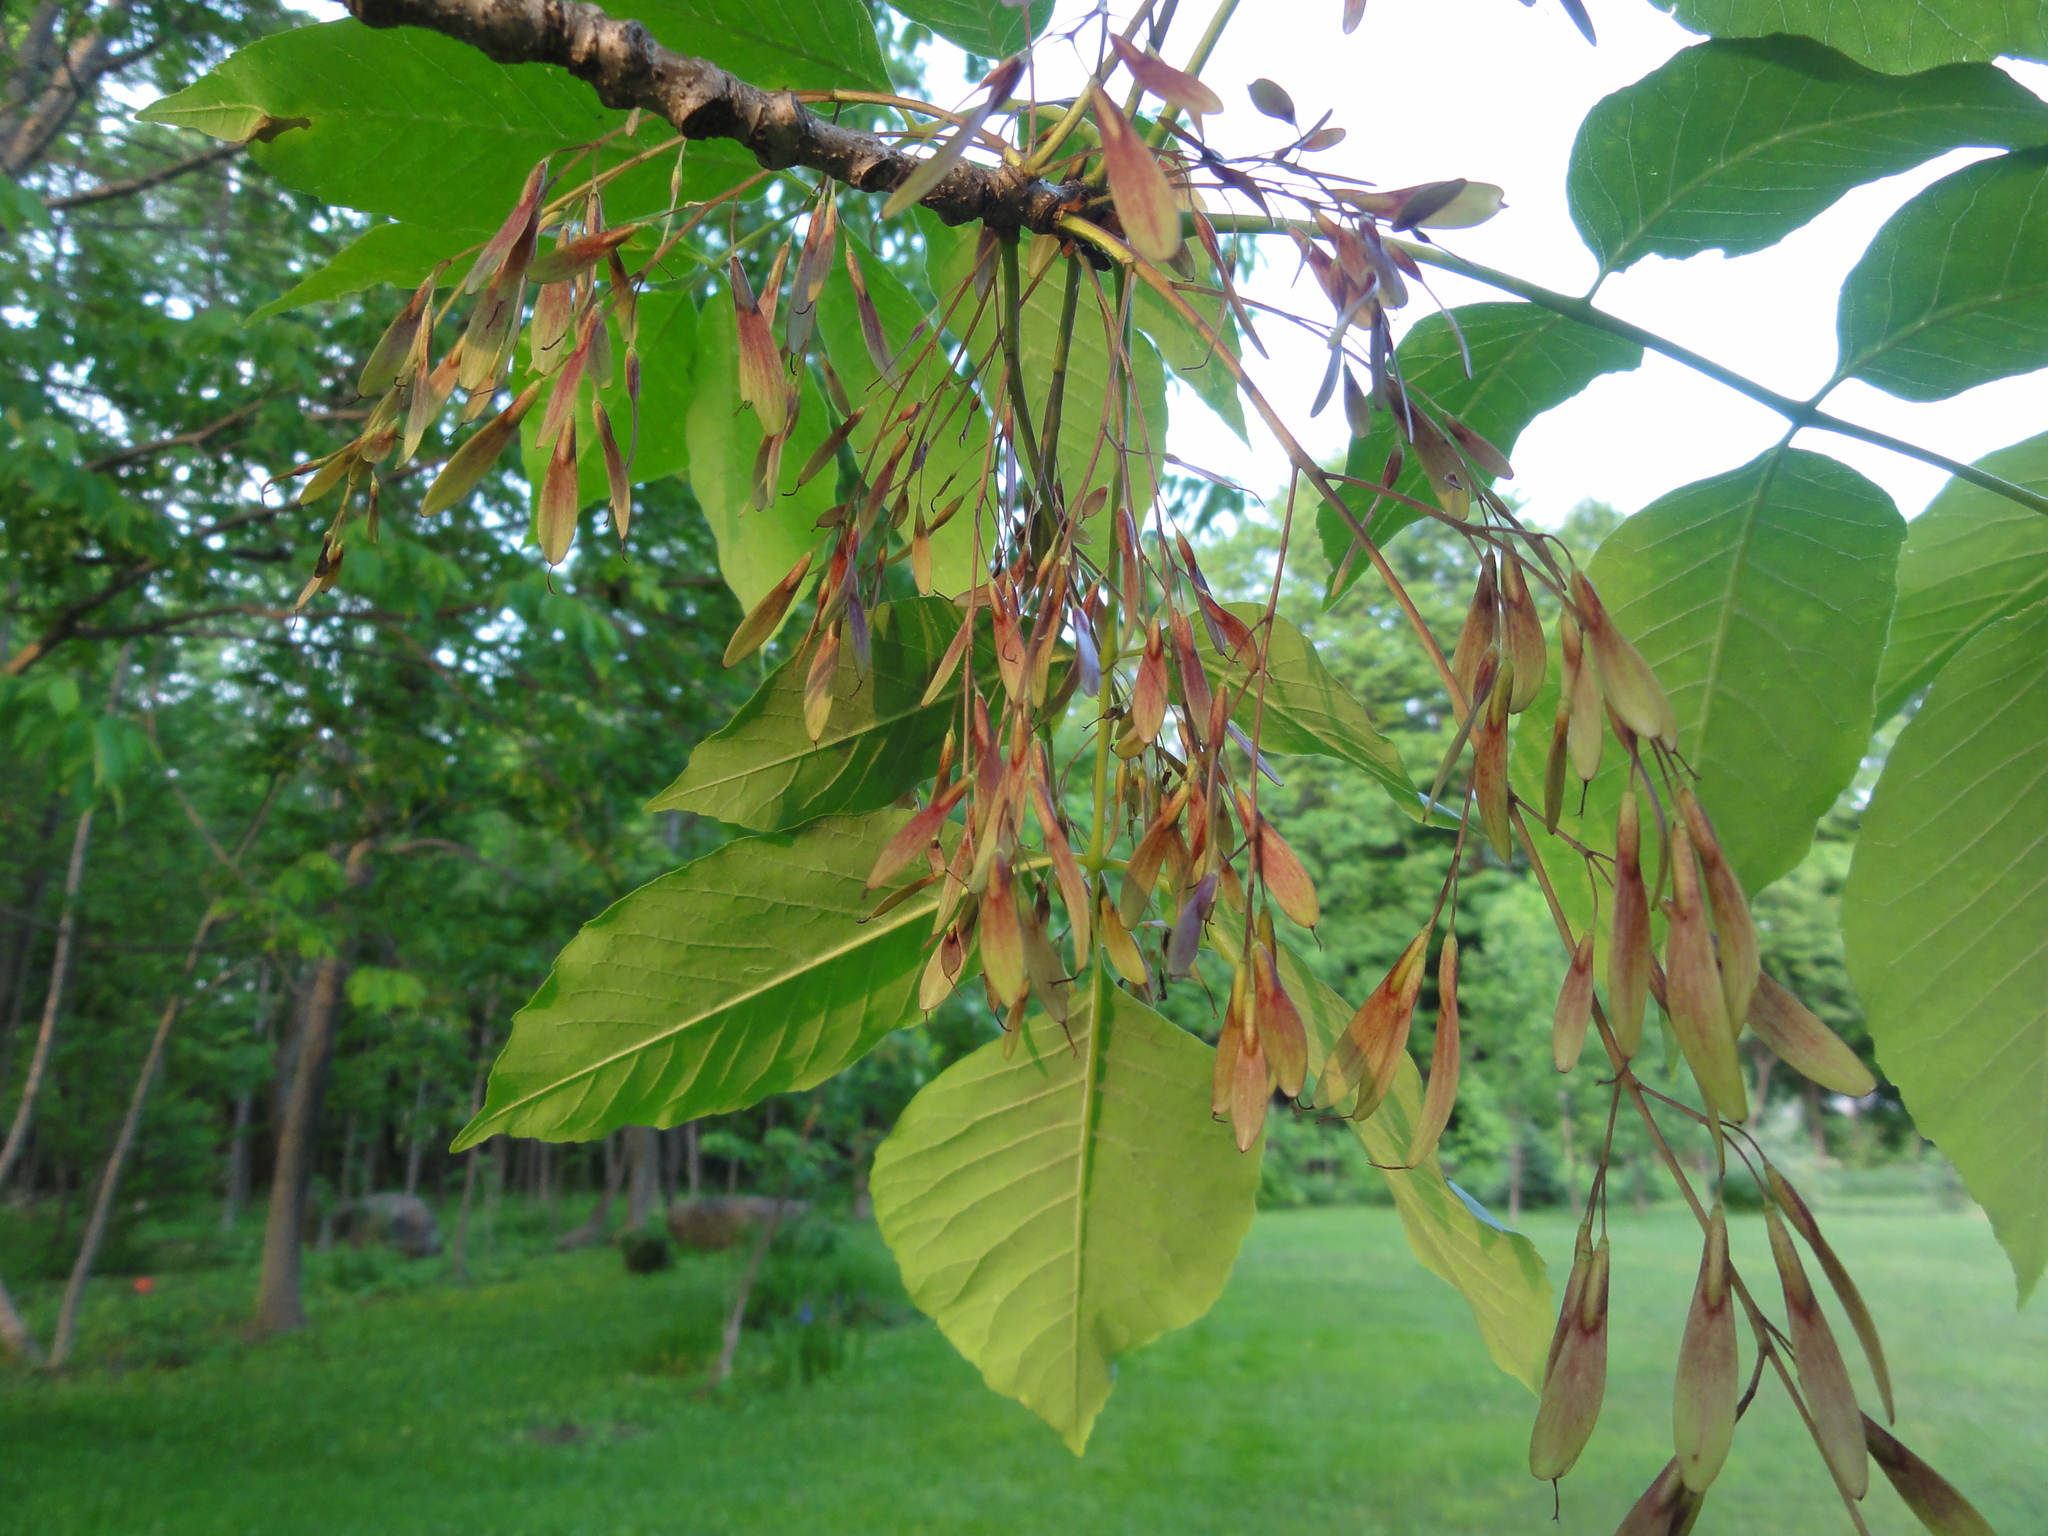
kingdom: Plantae
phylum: Tracheophyta
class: Magnoliopsida
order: Lamiales
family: Oleaceae
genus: Fraxinus
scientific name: Fraxinus americana
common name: White ash
